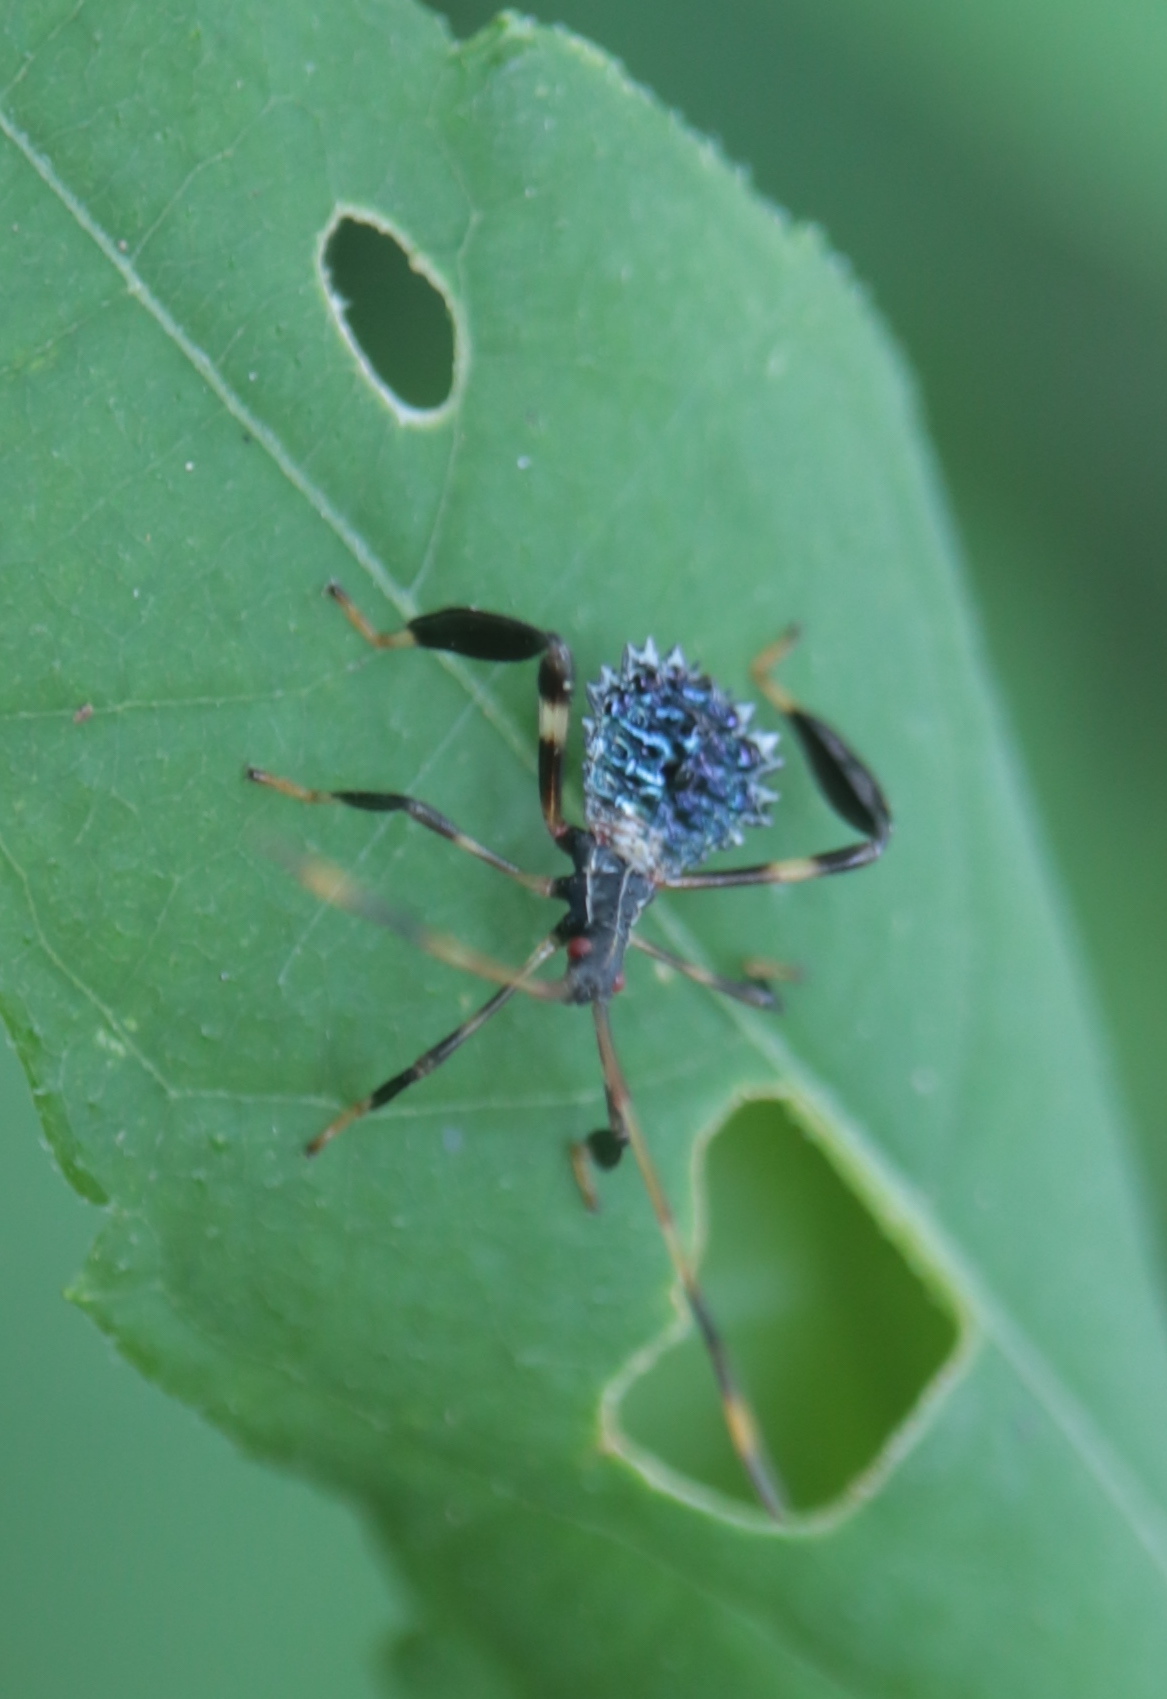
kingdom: Animalia
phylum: Arthropoda
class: Insecta
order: Hemiptera
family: Coreidae
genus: Acanthocephala
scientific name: Acanthocephala terminalis
